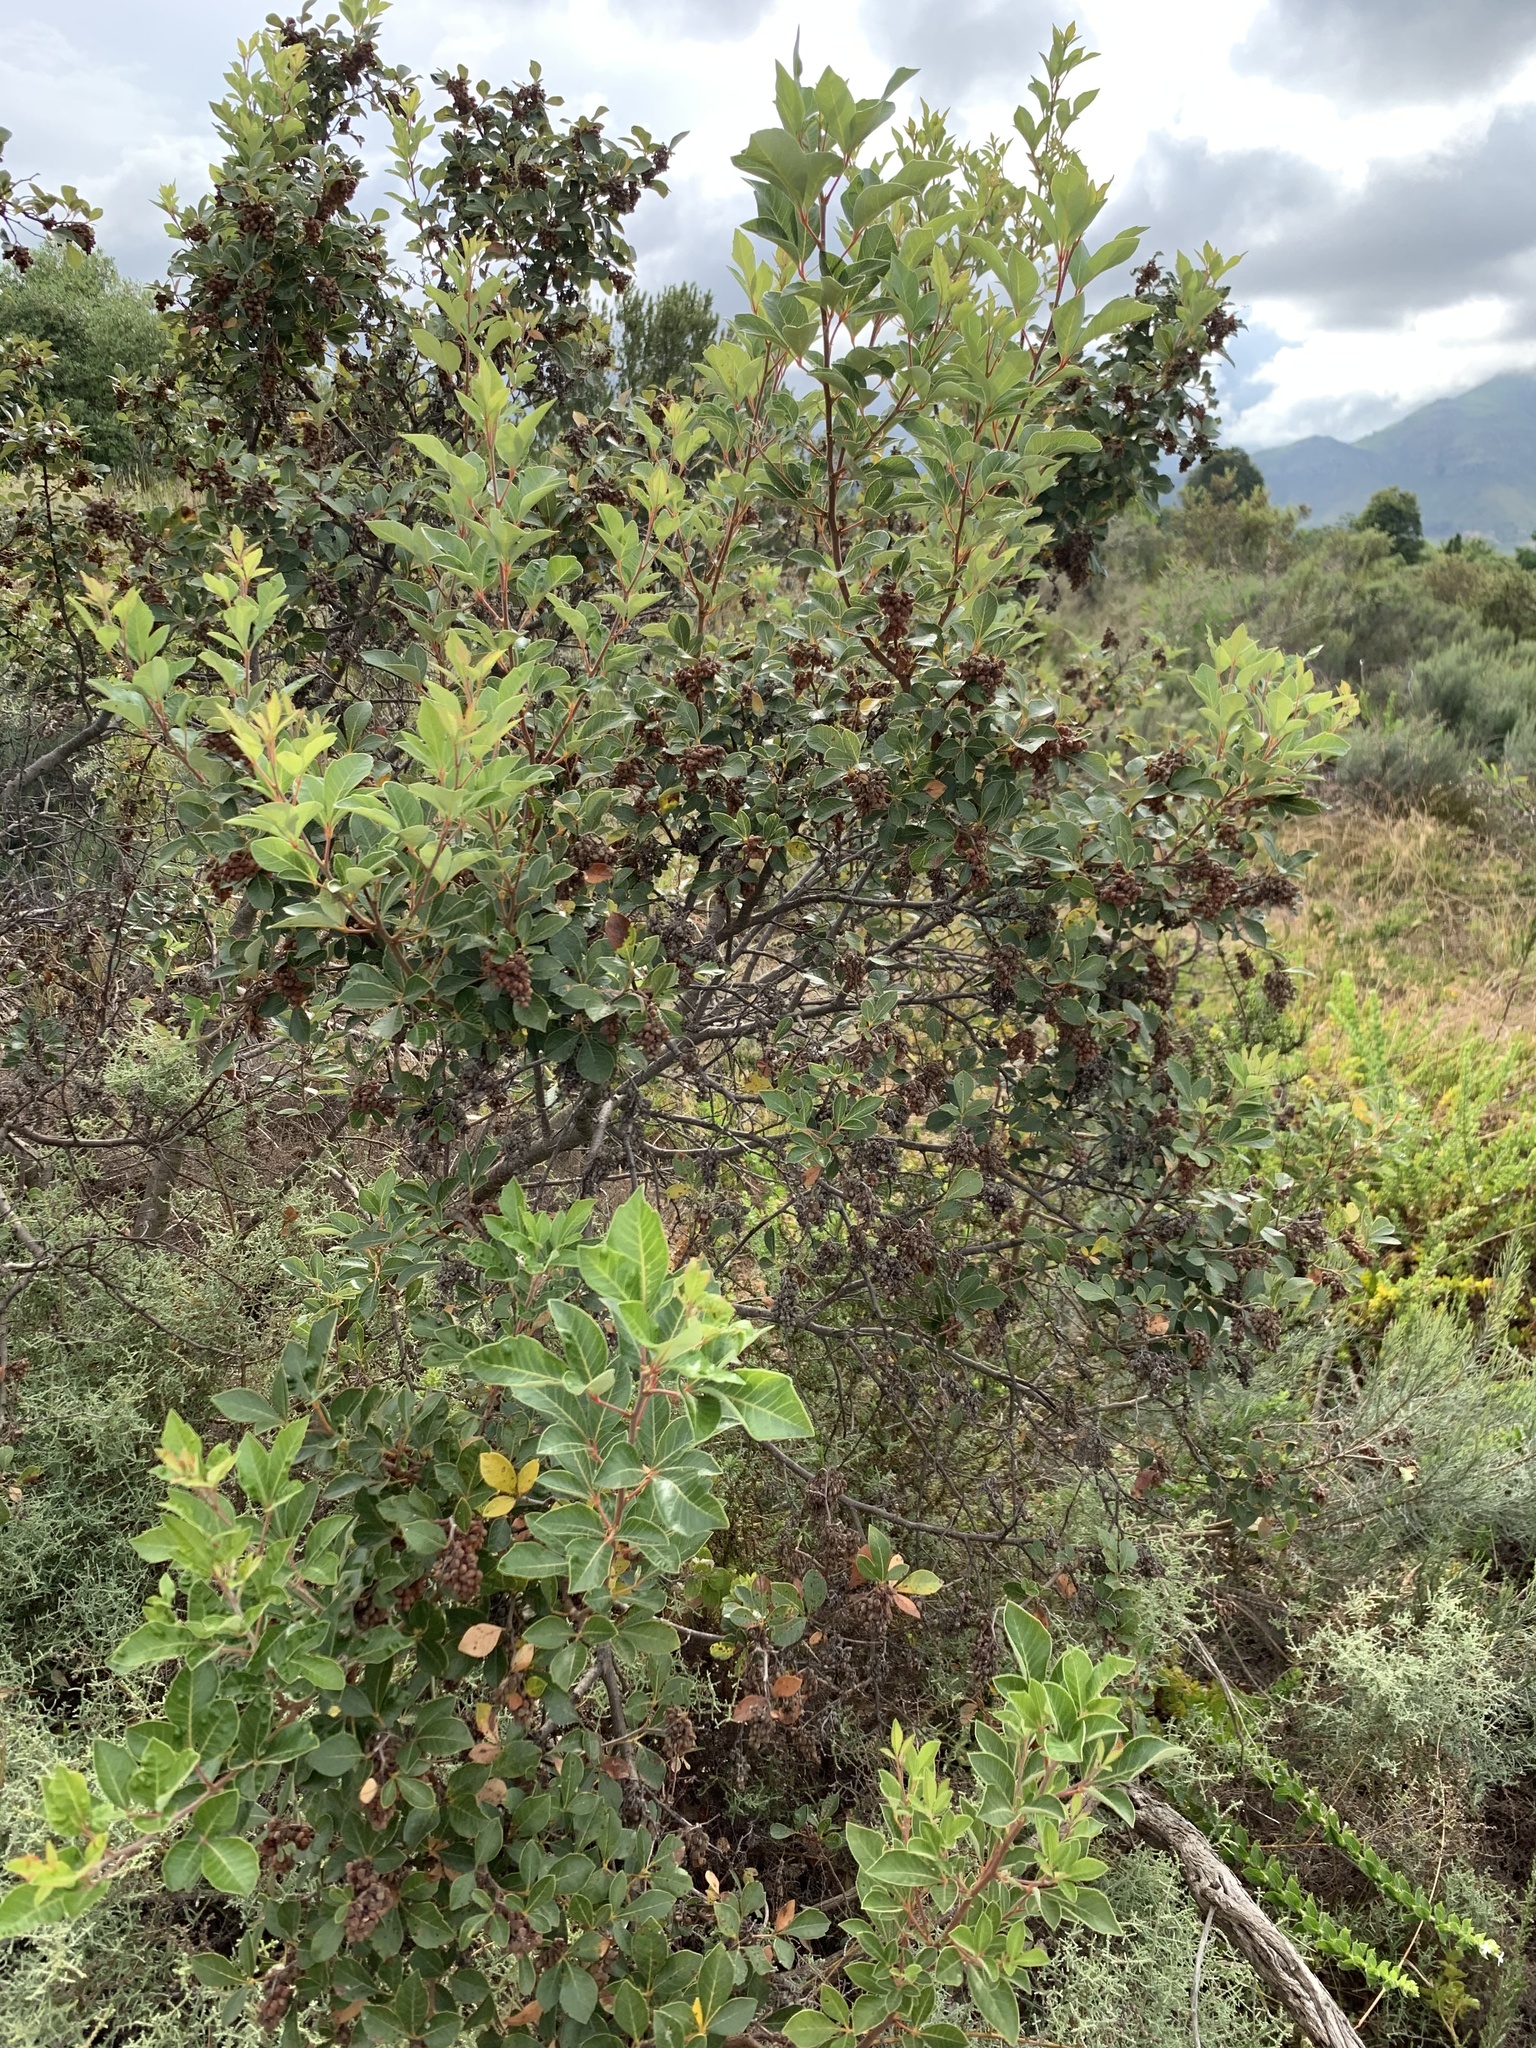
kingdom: Plantae
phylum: Tracheophyta
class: Magnoliopsida
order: Sapindales
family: Anacardiaceae
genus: Searsia
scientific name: Searsia tomentosa
